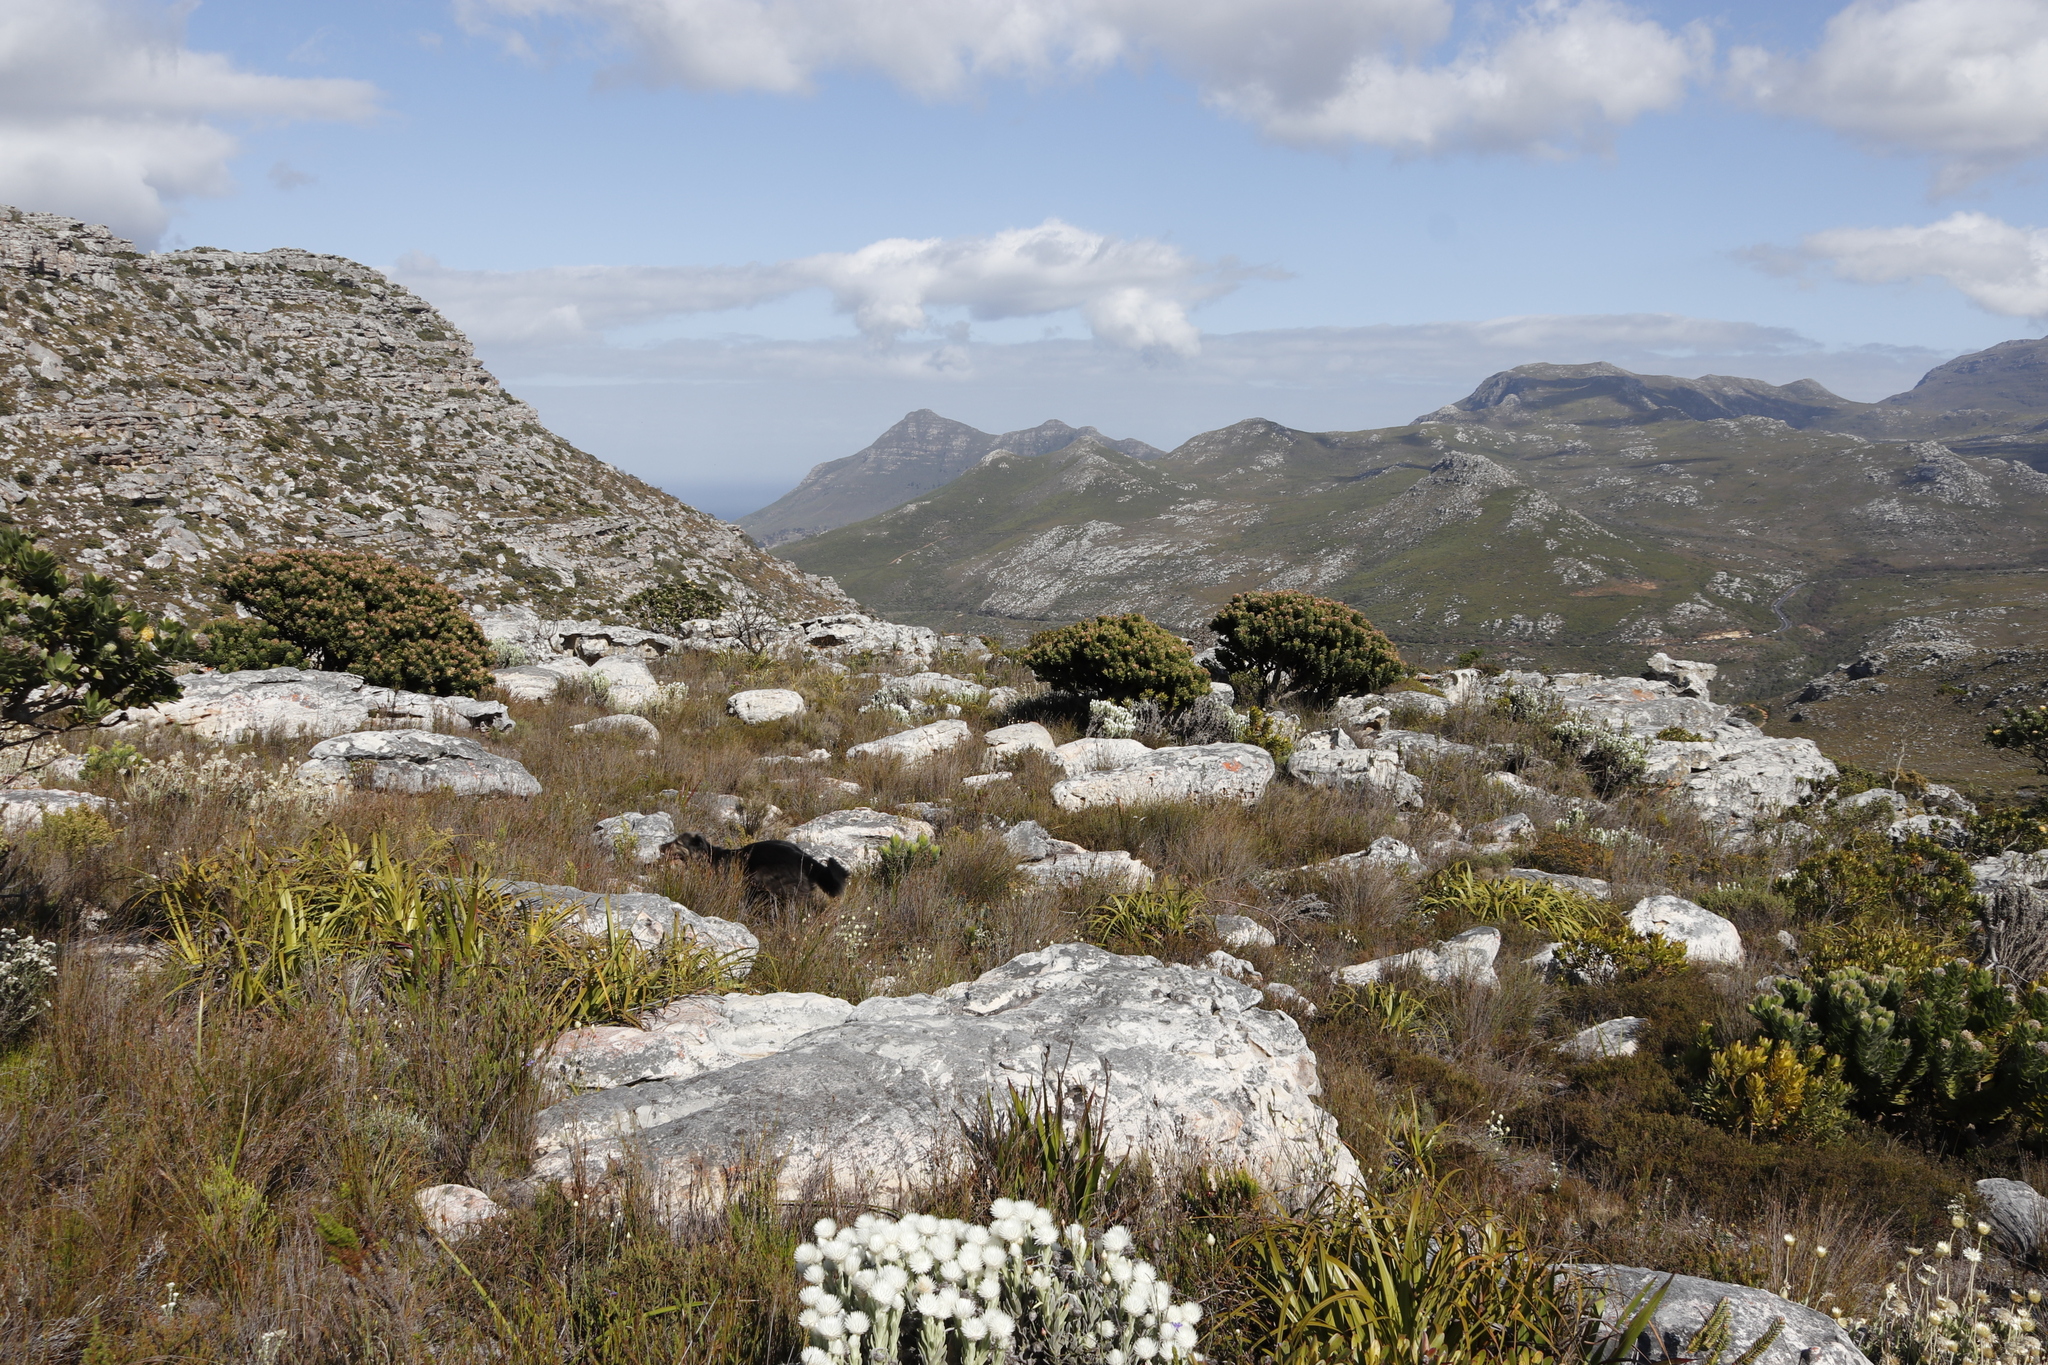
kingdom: Plantae
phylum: Tracheophyta
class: Magnoliopsida
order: Proteales
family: Proteaceae
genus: Mimetes
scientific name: Mimetes fimbriifolius
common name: Fringed bottlebrush
